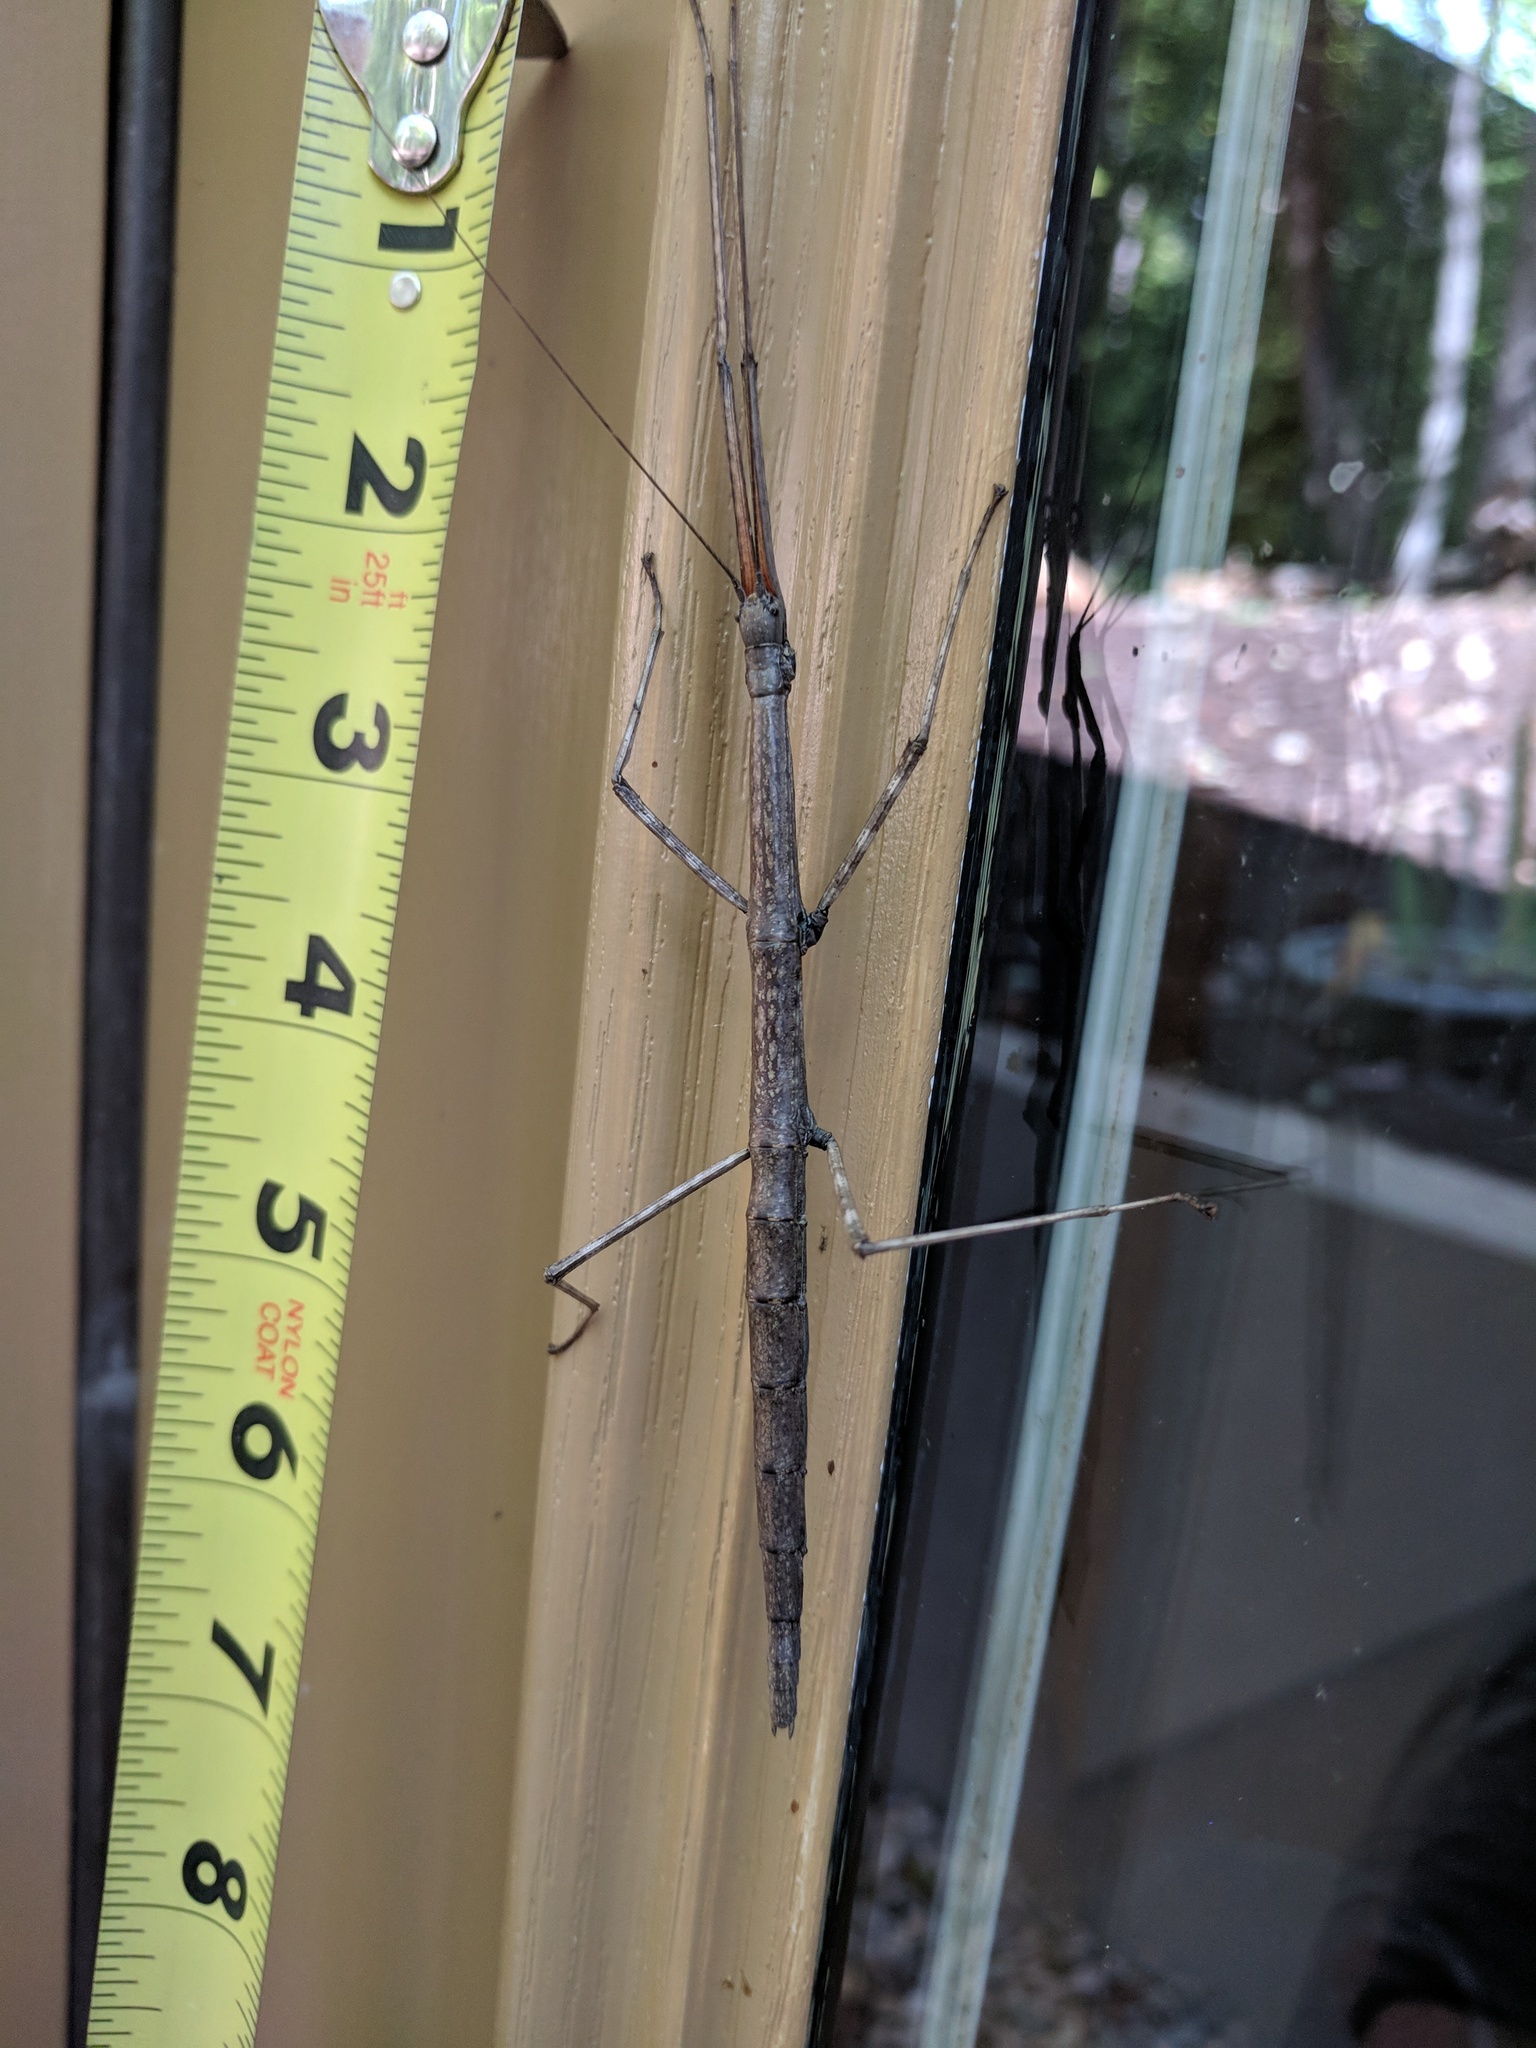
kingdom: Animalia
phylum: Arthropoda
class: Insecta
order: Phasmida
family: Diapheromeridae
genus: Diapheromera
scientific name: Diapheromera femorata
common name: Common american walkingstick
